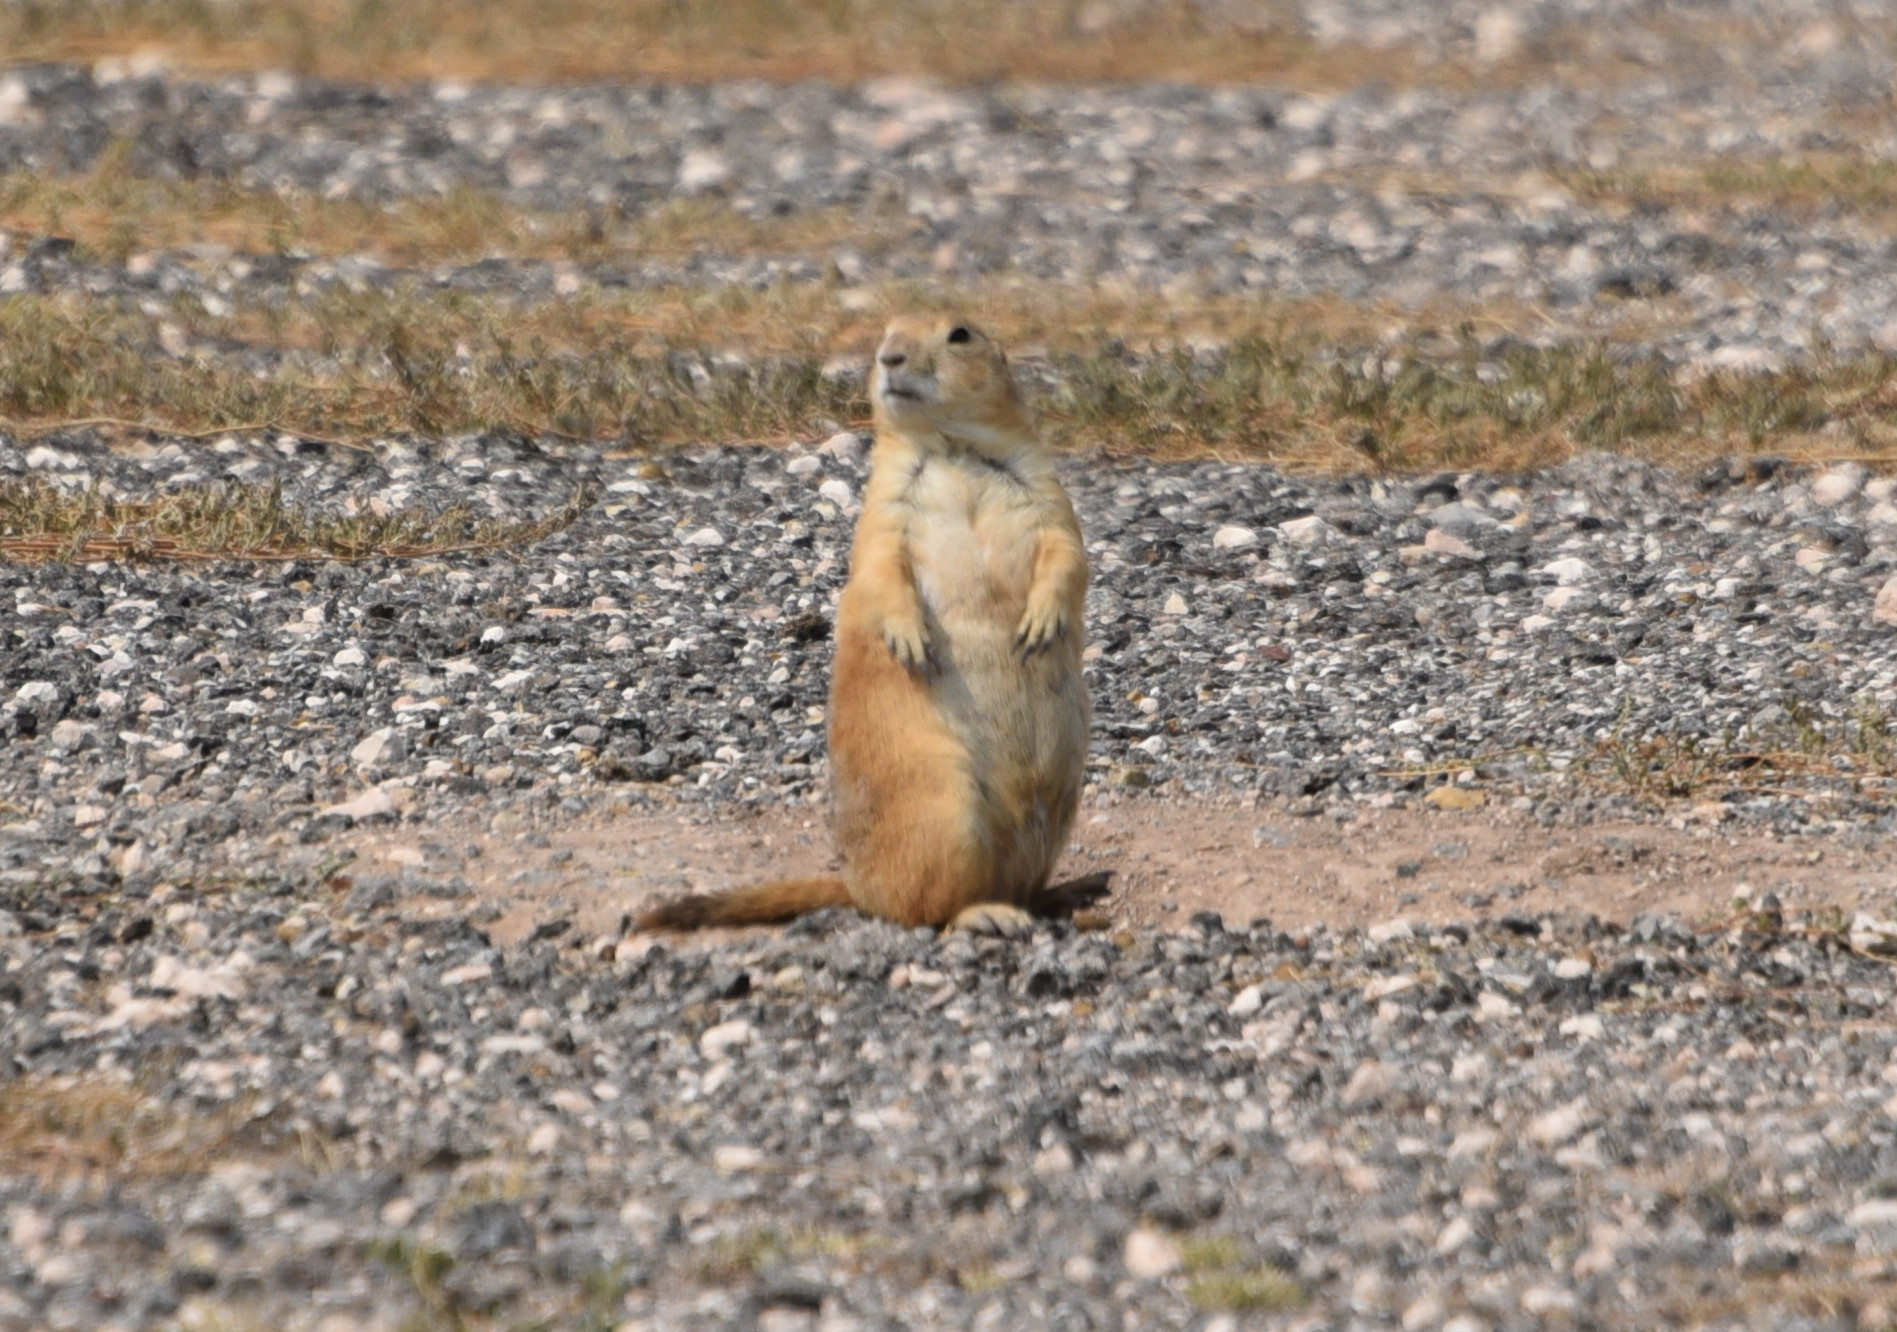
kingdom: Animalia
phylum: Chordata
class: Mammalia
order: Rodentia
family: Sciuridae
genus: Cynomys
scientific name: Cynomys ludovicianus
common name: Black-tailed prairie dog
